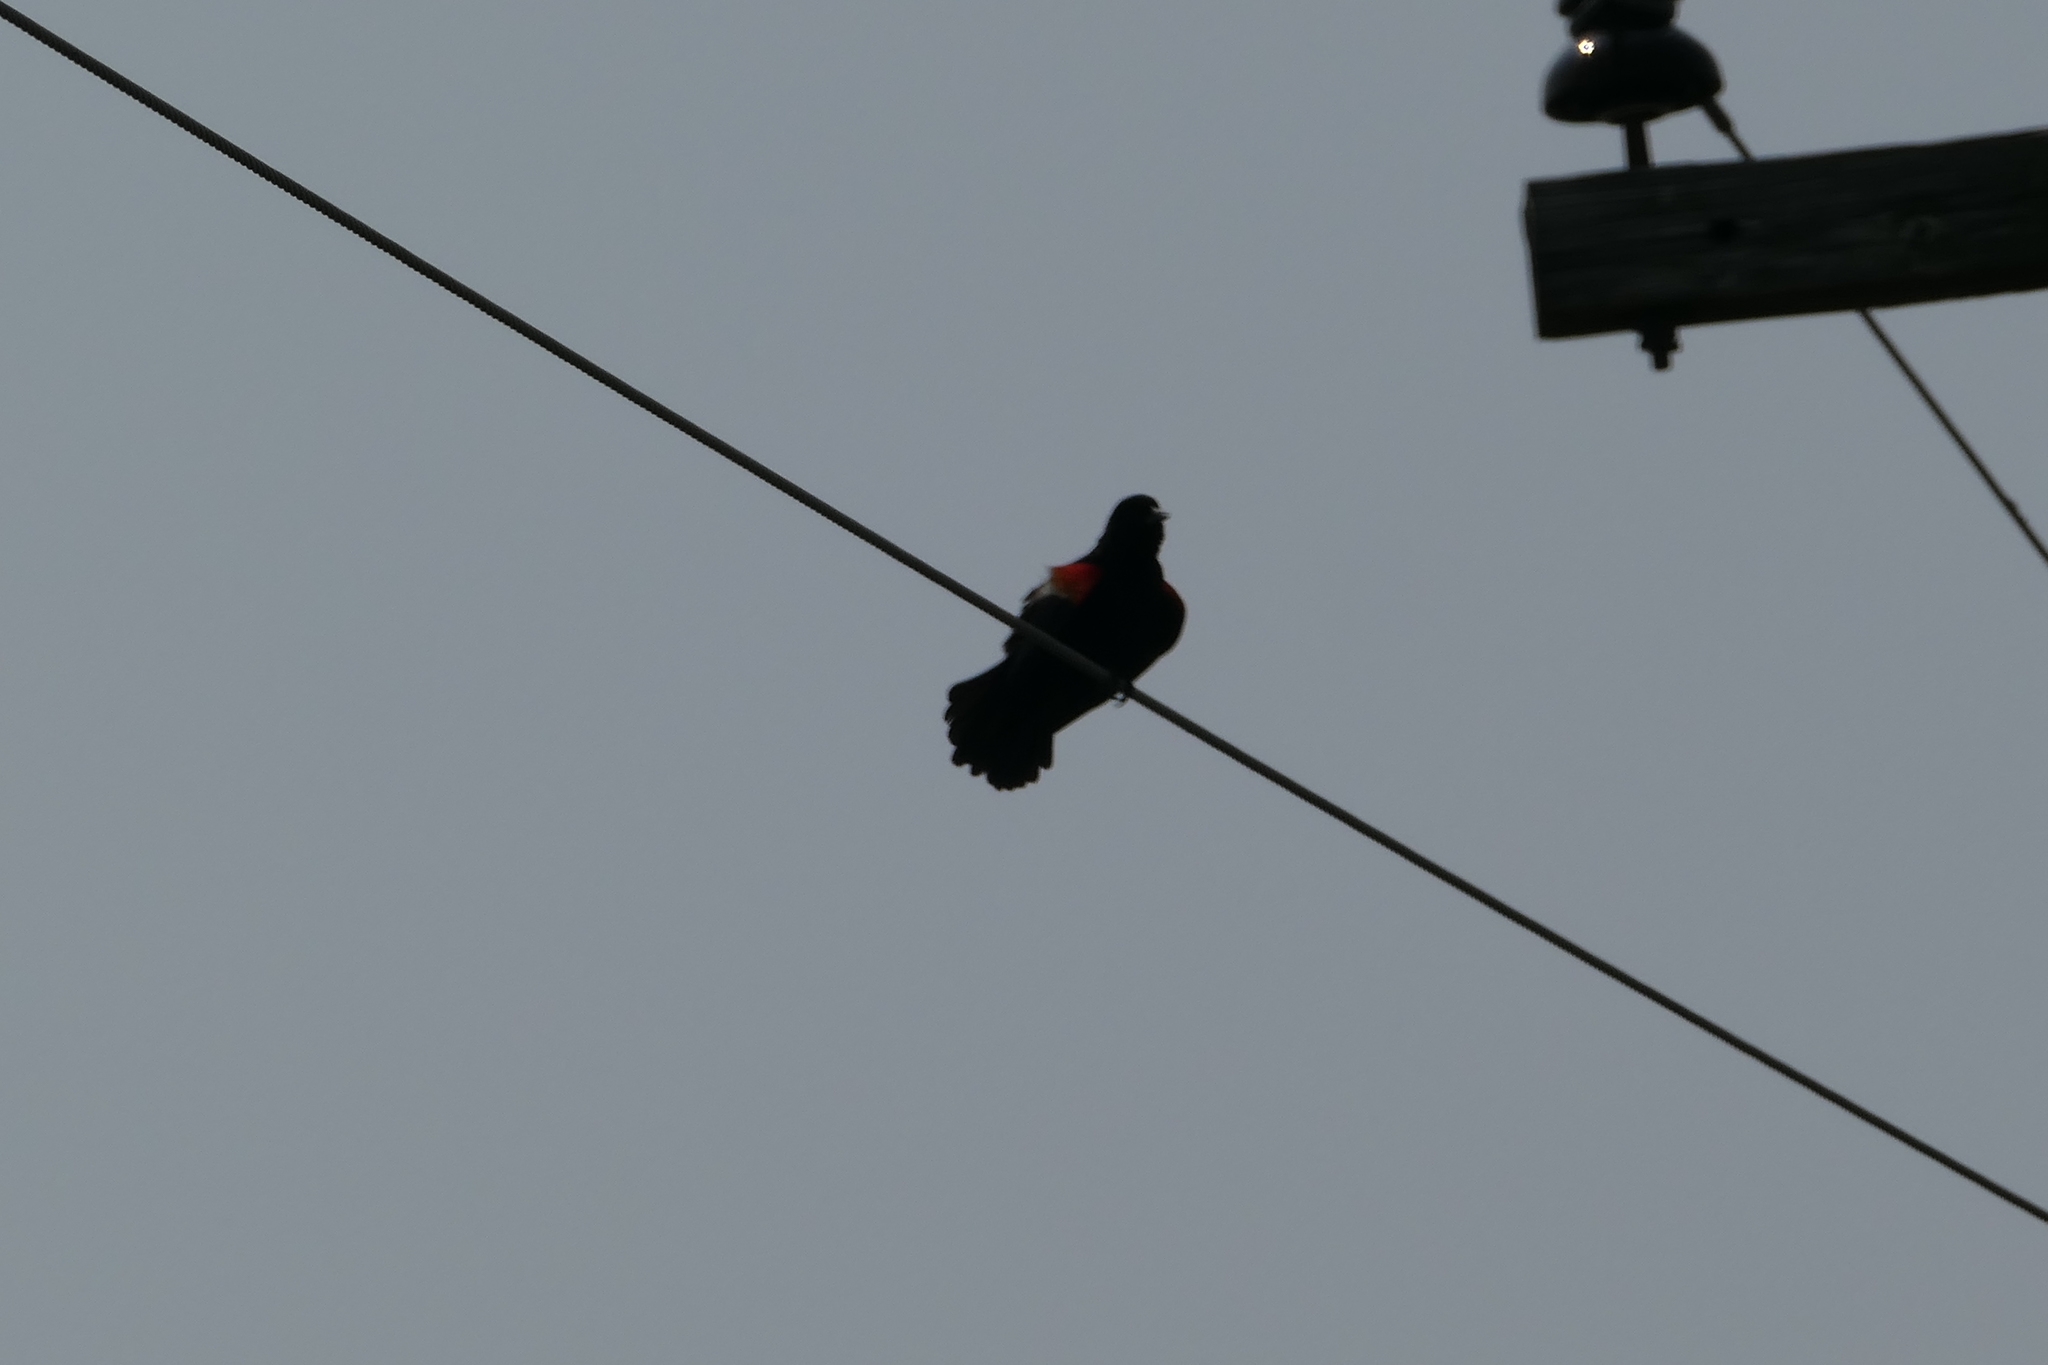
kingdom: Animalia
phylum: Chordata
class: Aves
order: Passeriformes
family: Icteridae
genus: Agelaius
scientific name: Agelaius phoeniceus
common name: Red-winged blackbird
